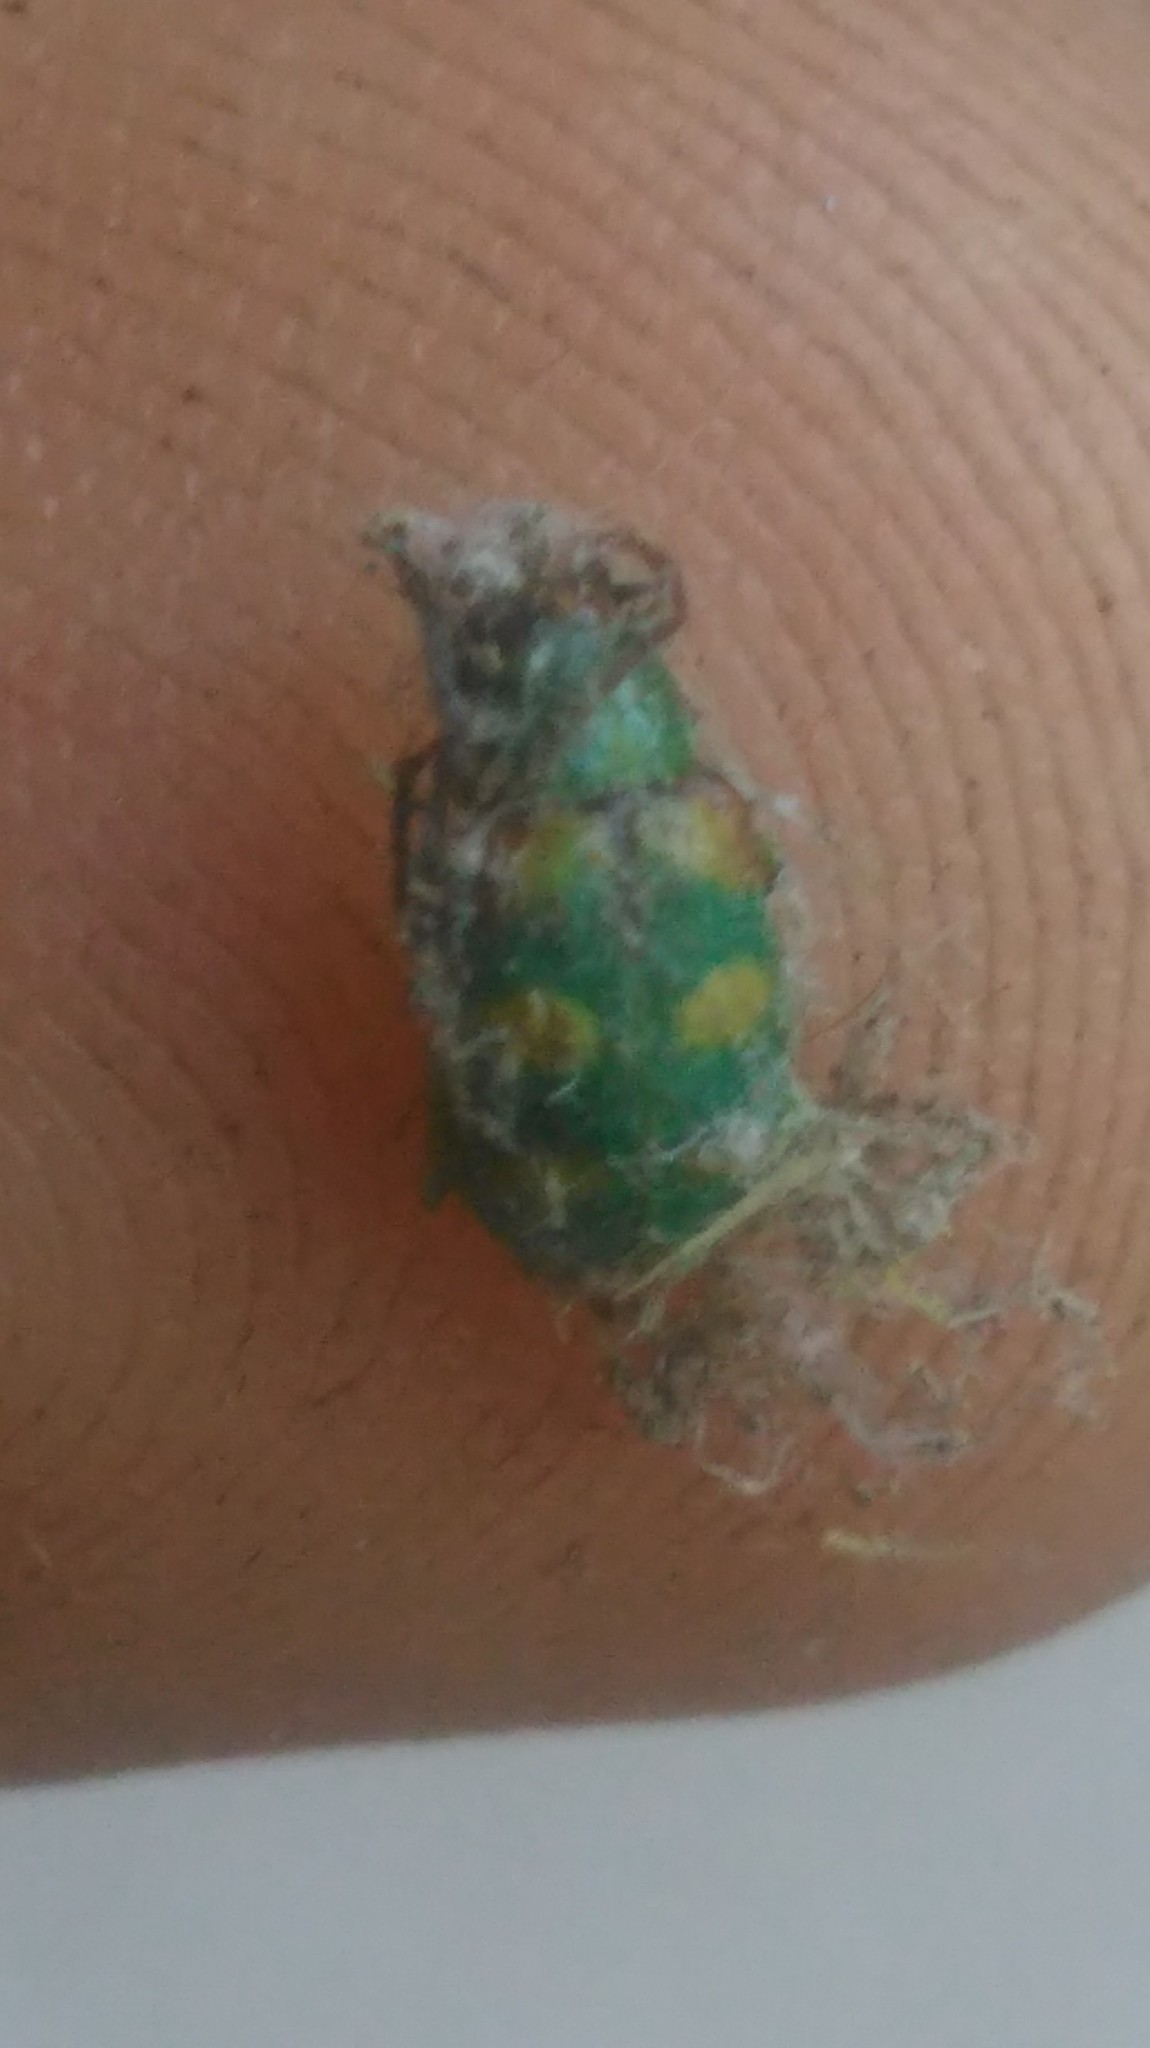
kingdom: Animalia
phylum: Arthropoda
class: Insecta
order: Coleoptera
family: Chrysomelidae
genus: Diabrotica
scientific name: Diabrotica speciosa
